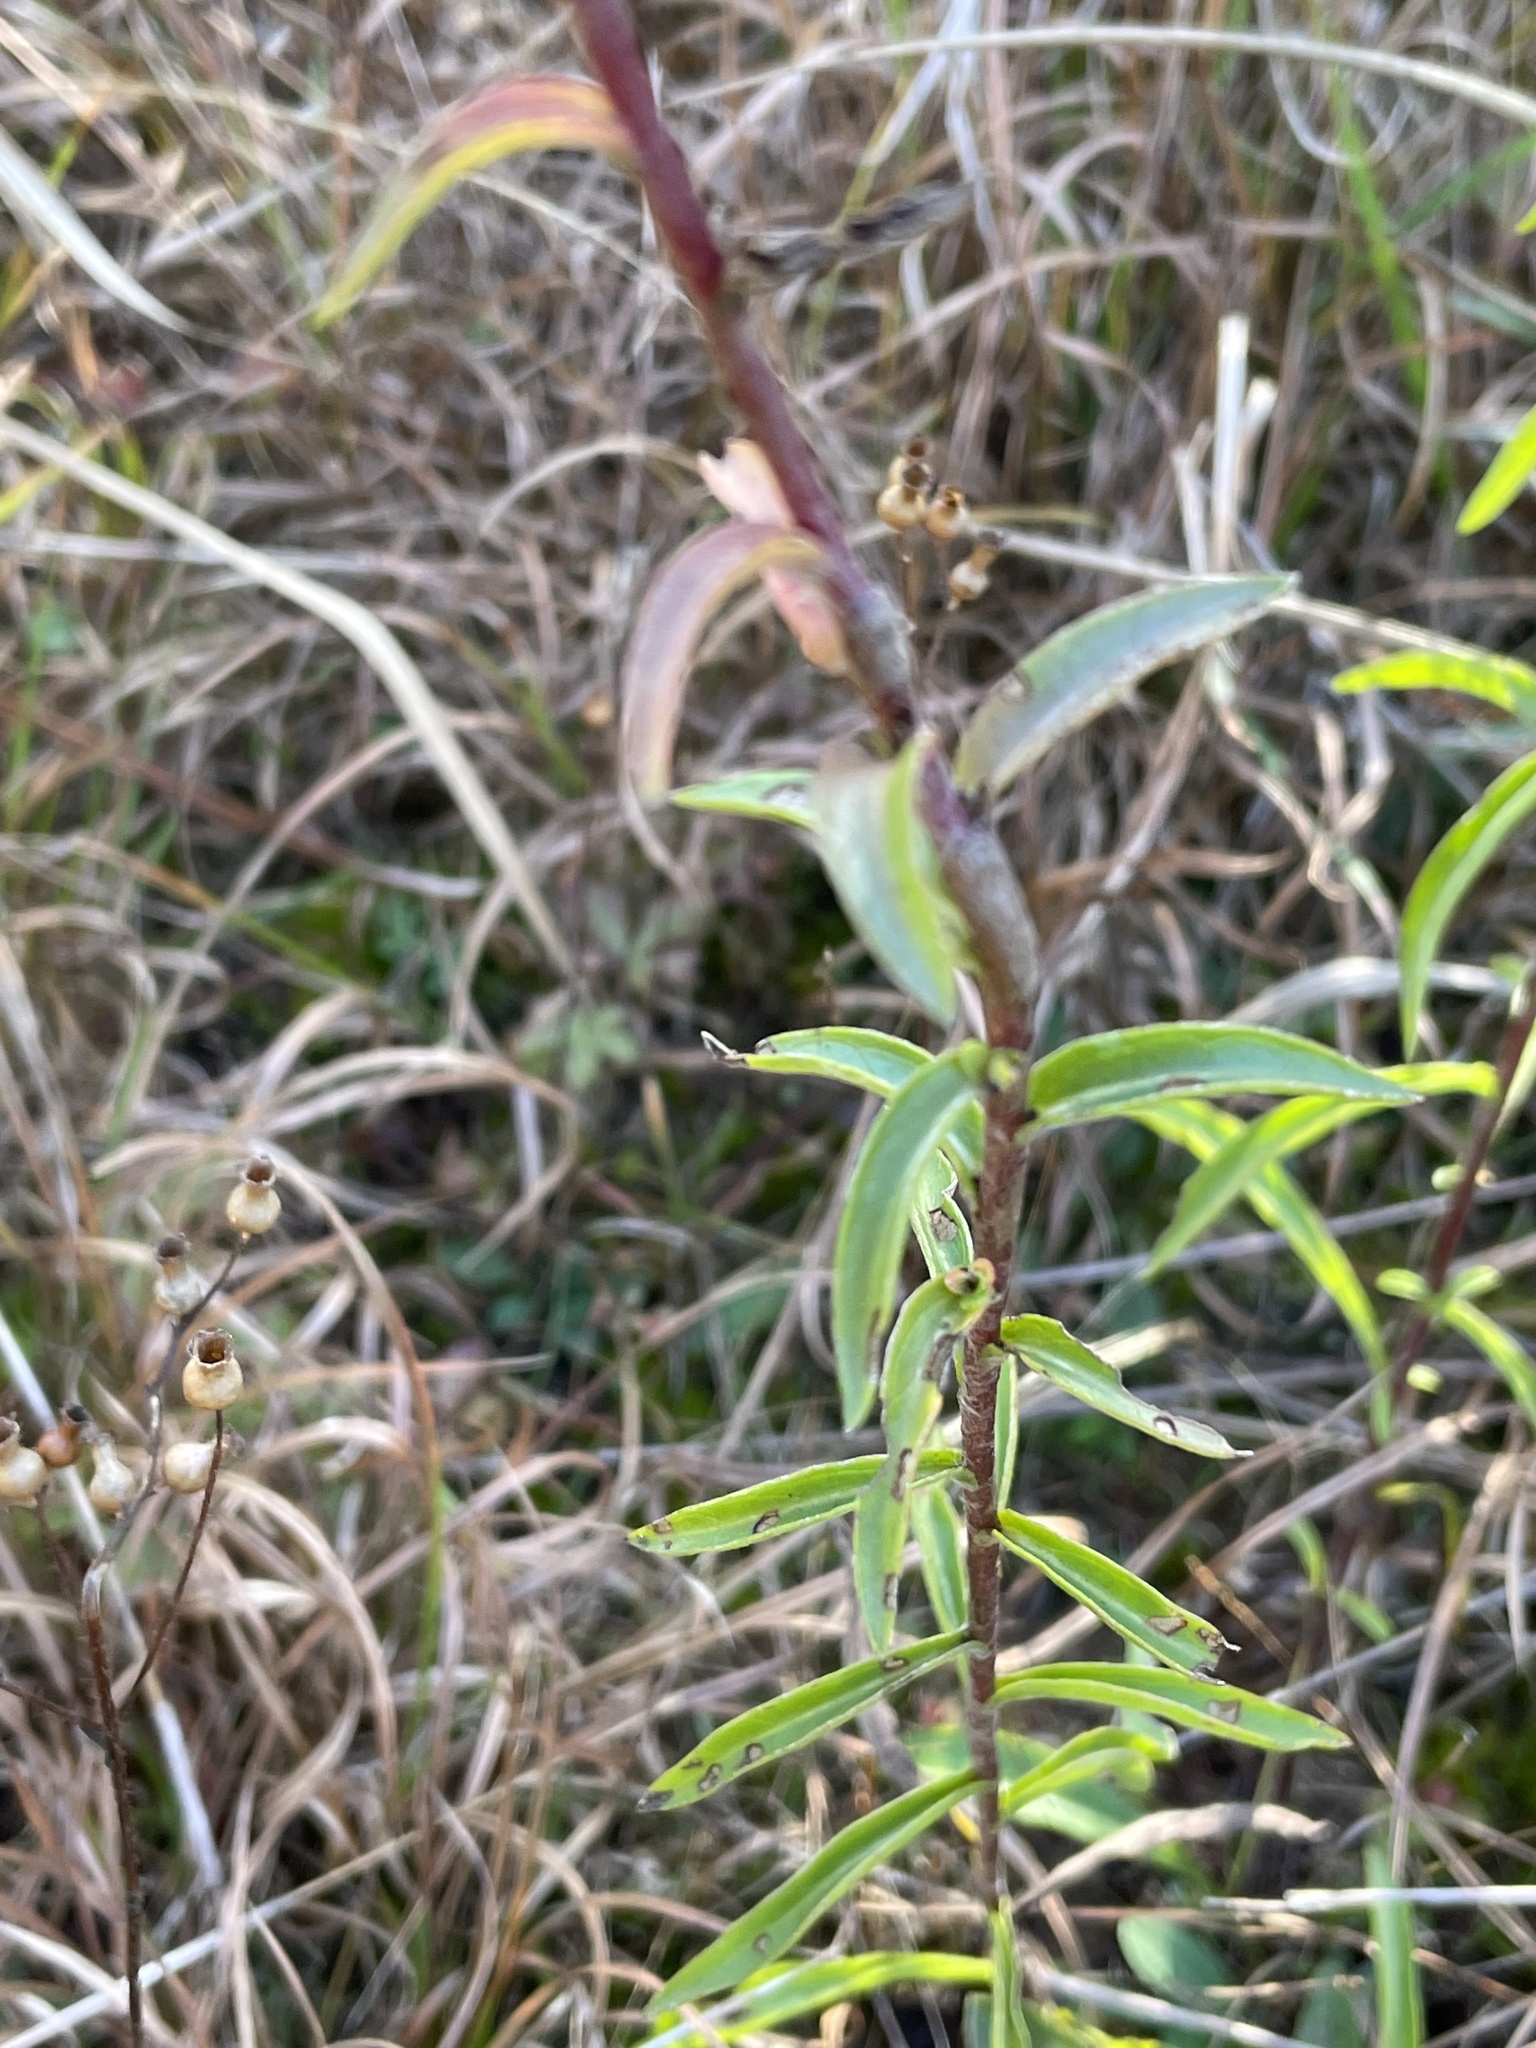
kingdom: Plantae
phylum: Tracheophyta
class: Magnoliopsida
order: Asterales
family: Asteraceae
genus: Chrysopsis
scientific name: Chrysopsis mariana
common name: Maryland golden-aster
